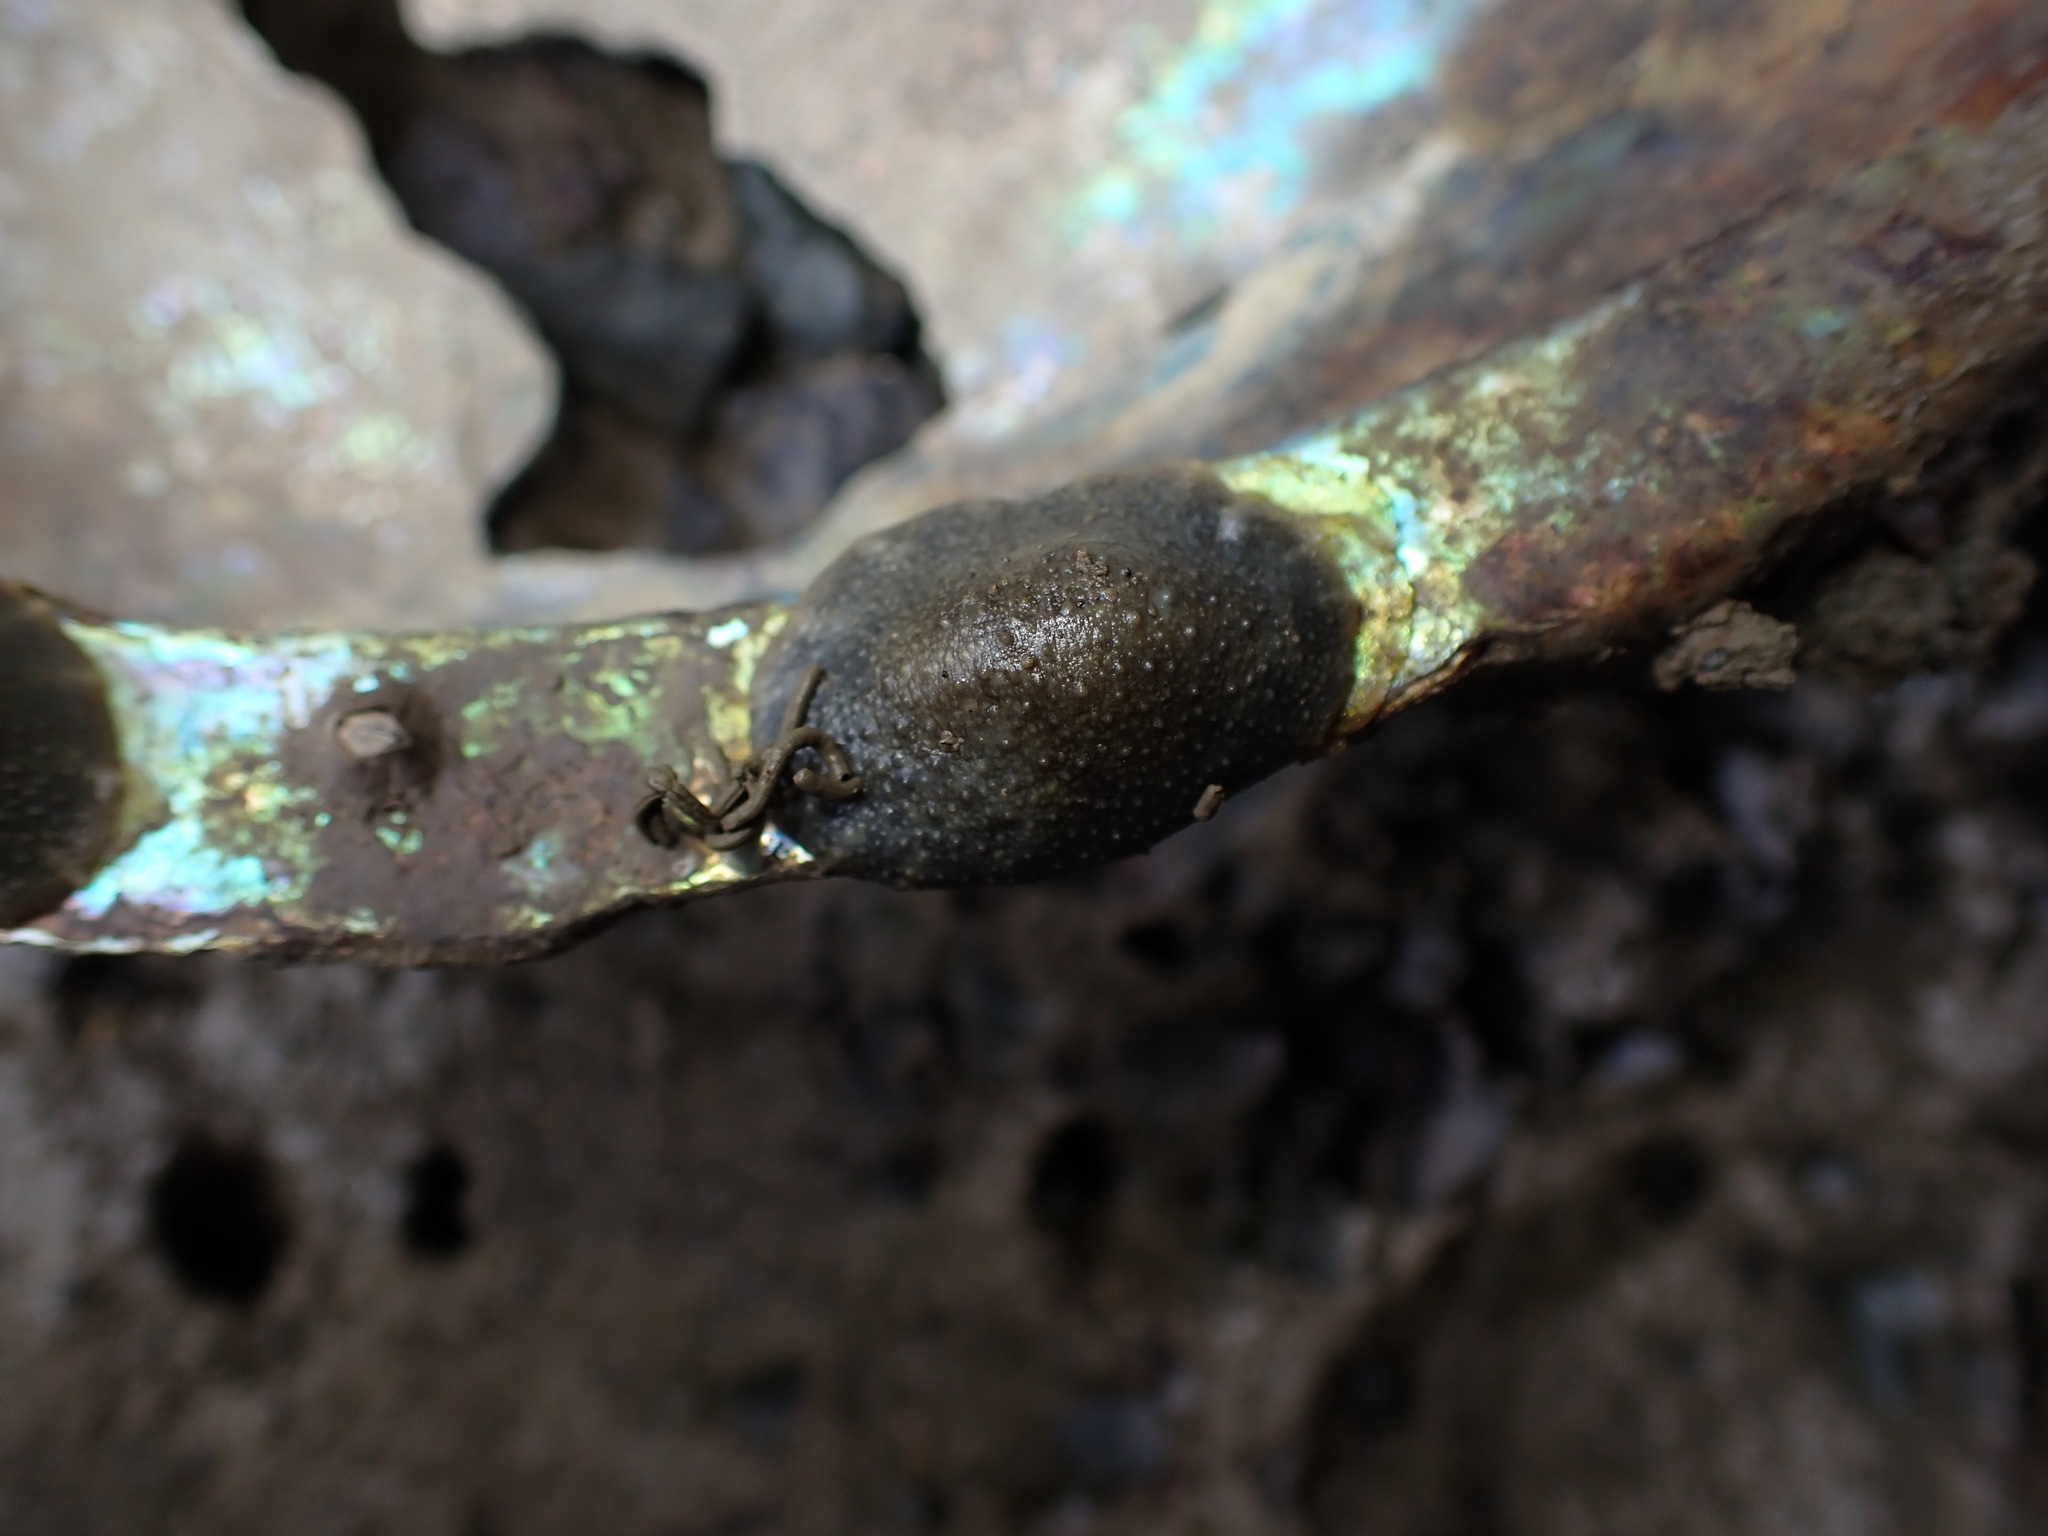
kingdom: Animalia
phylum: Mollusca
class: Gastropoda
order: Systellommatophora
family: Onchidiidae
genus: Onchidella
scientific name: Onchidella nigricans
